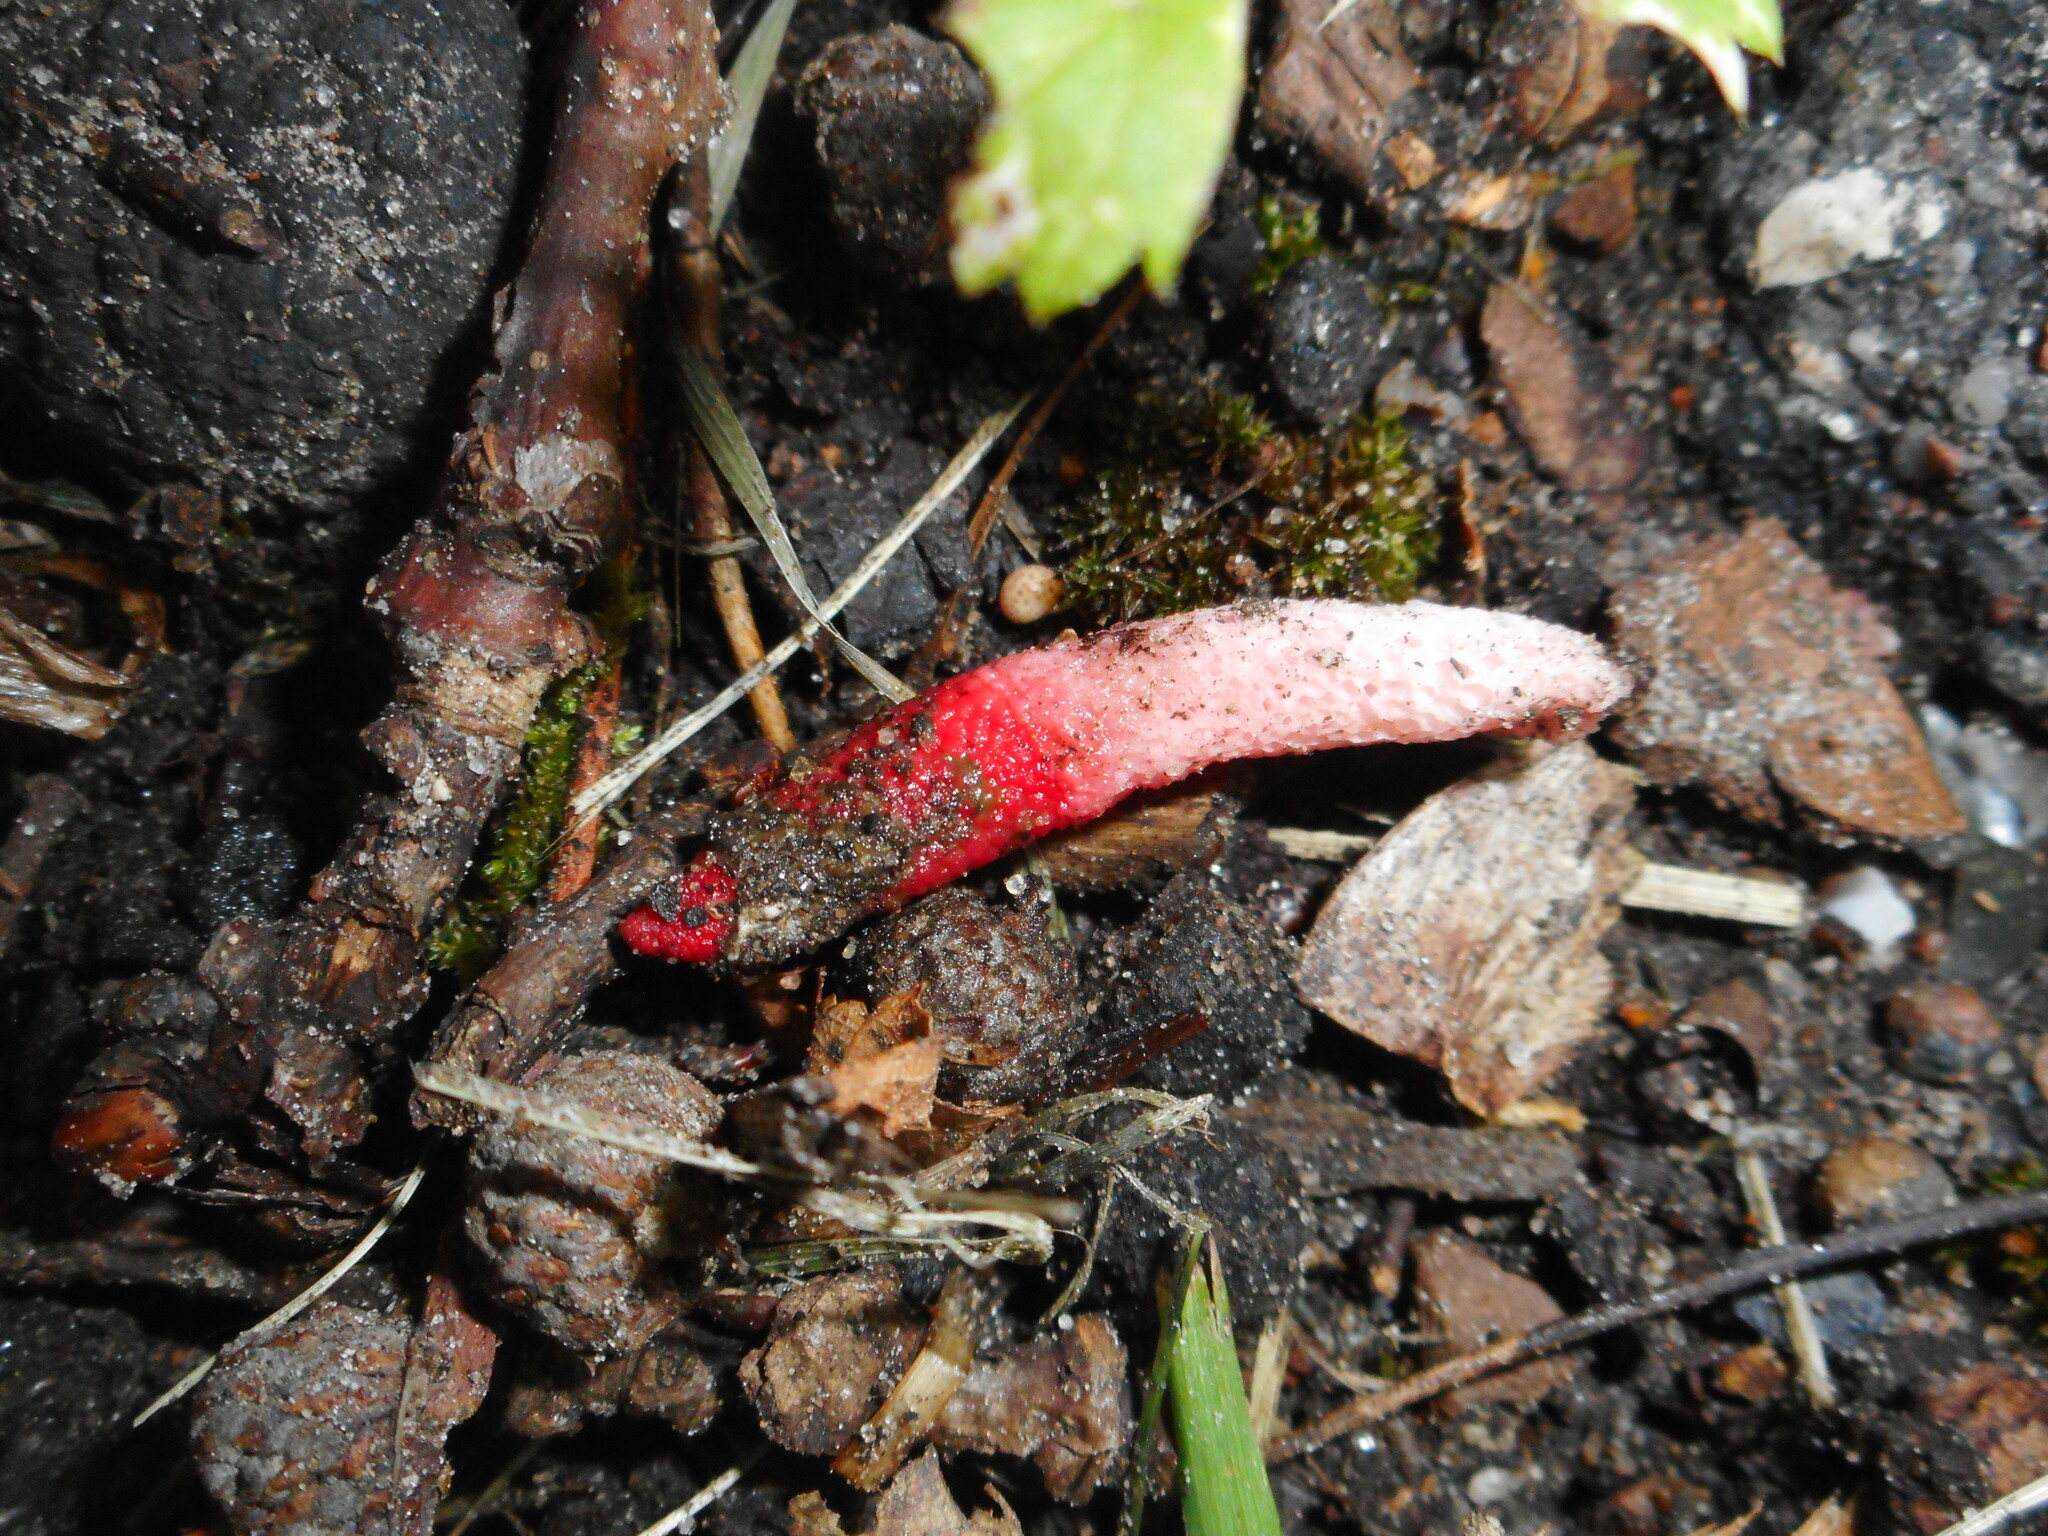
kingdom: Fungi
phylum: Basidiomycota
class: Agaricomycetes
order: Phallales
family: Phallaceae
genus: Mutinus
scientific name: Mutinus ravenelii
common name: Red stinkhorn
